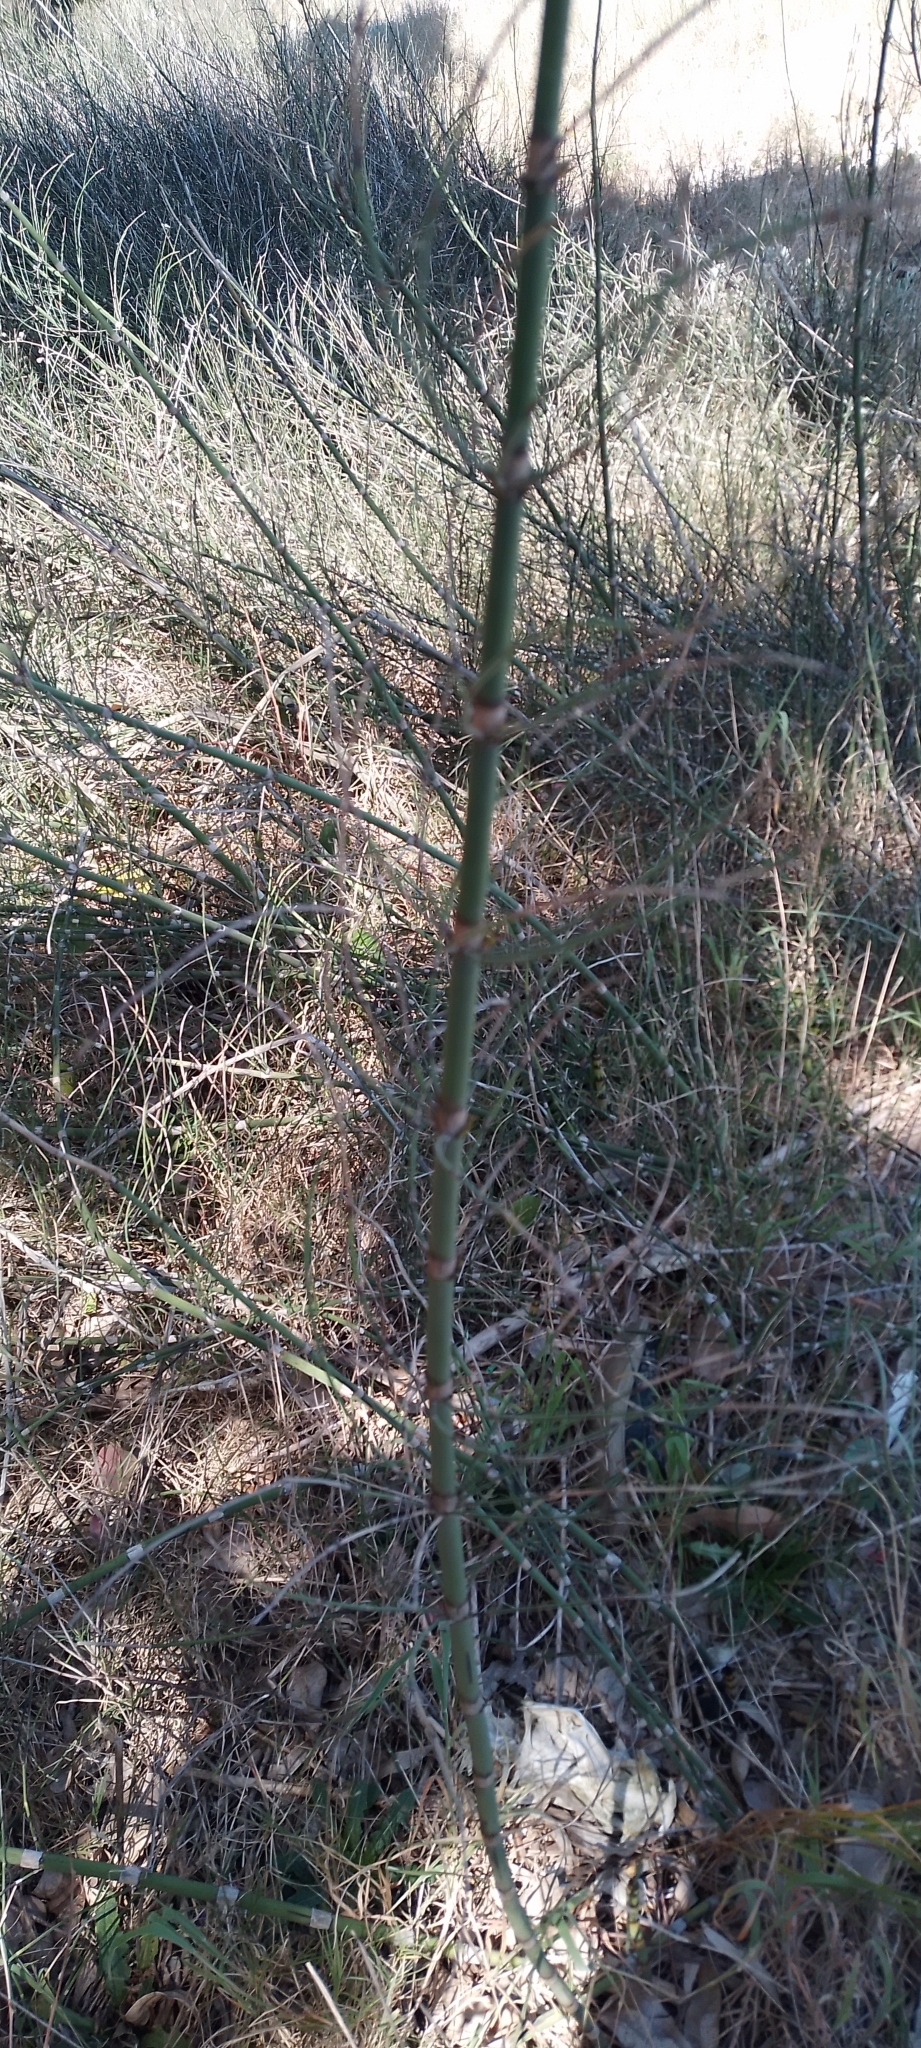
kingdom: Plantae
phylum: Tracheophyta
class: Liliopsida
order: Poales
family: Poaceae
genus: Phyllostachys
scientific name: Phyllostachys aurea
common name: Golden bamboo
